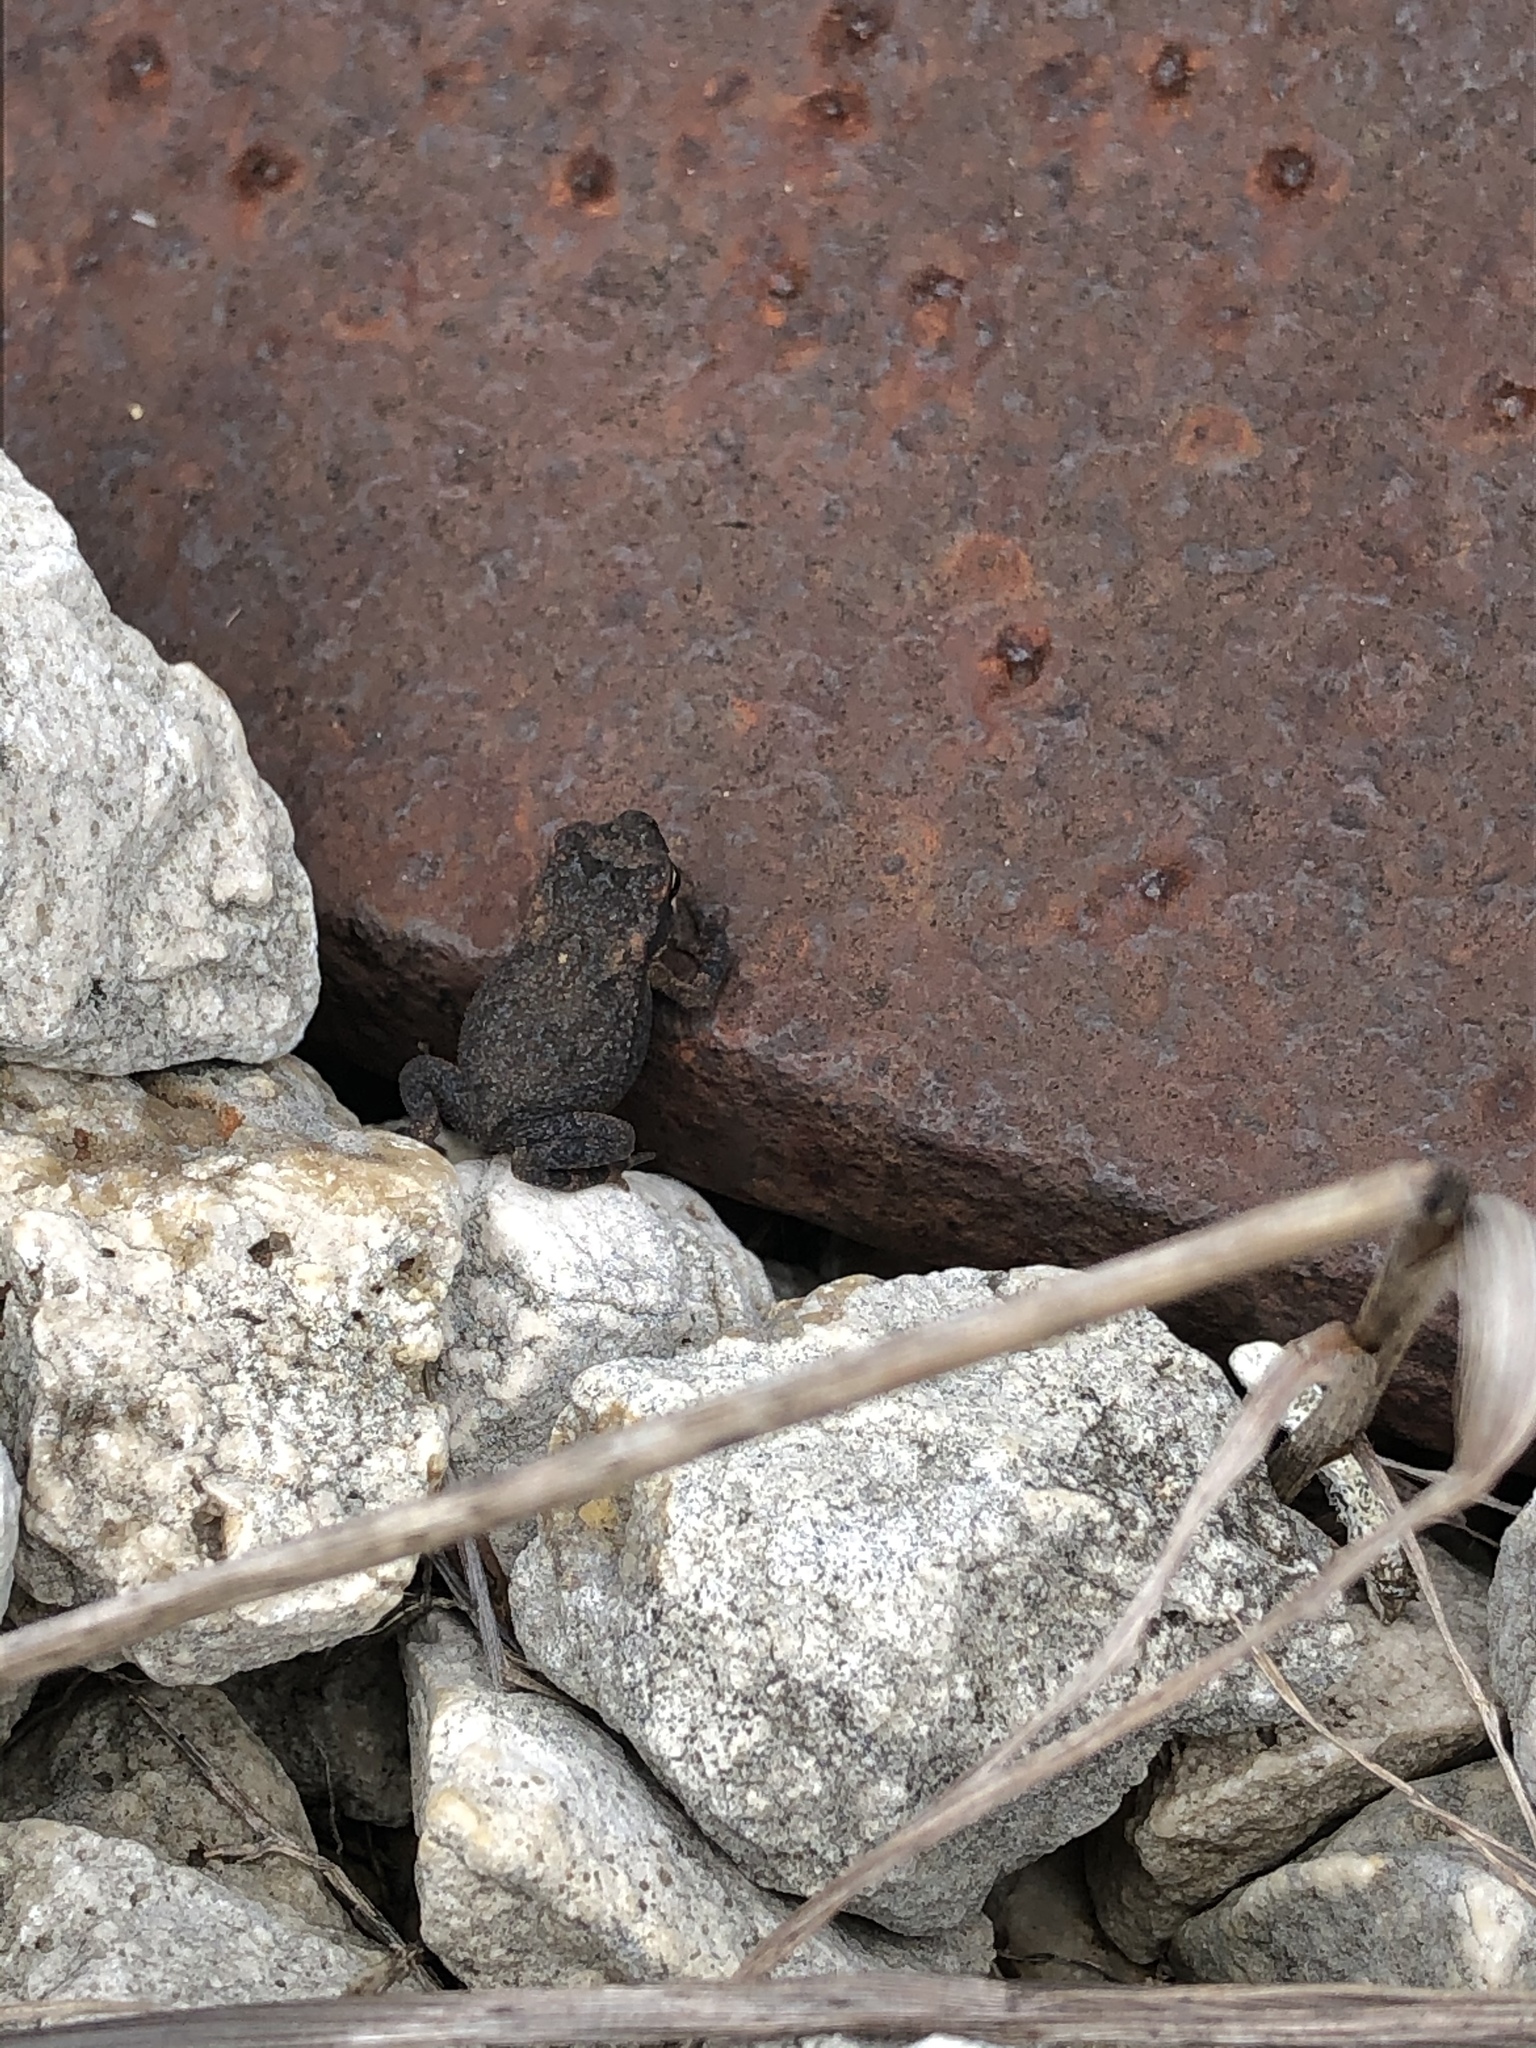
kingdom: Animalia
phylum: Chordata
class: Amphibia
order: Anura
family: Bufonidae
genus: Incilius
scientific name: Incilius nebulifer
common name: Gulf coast toad
